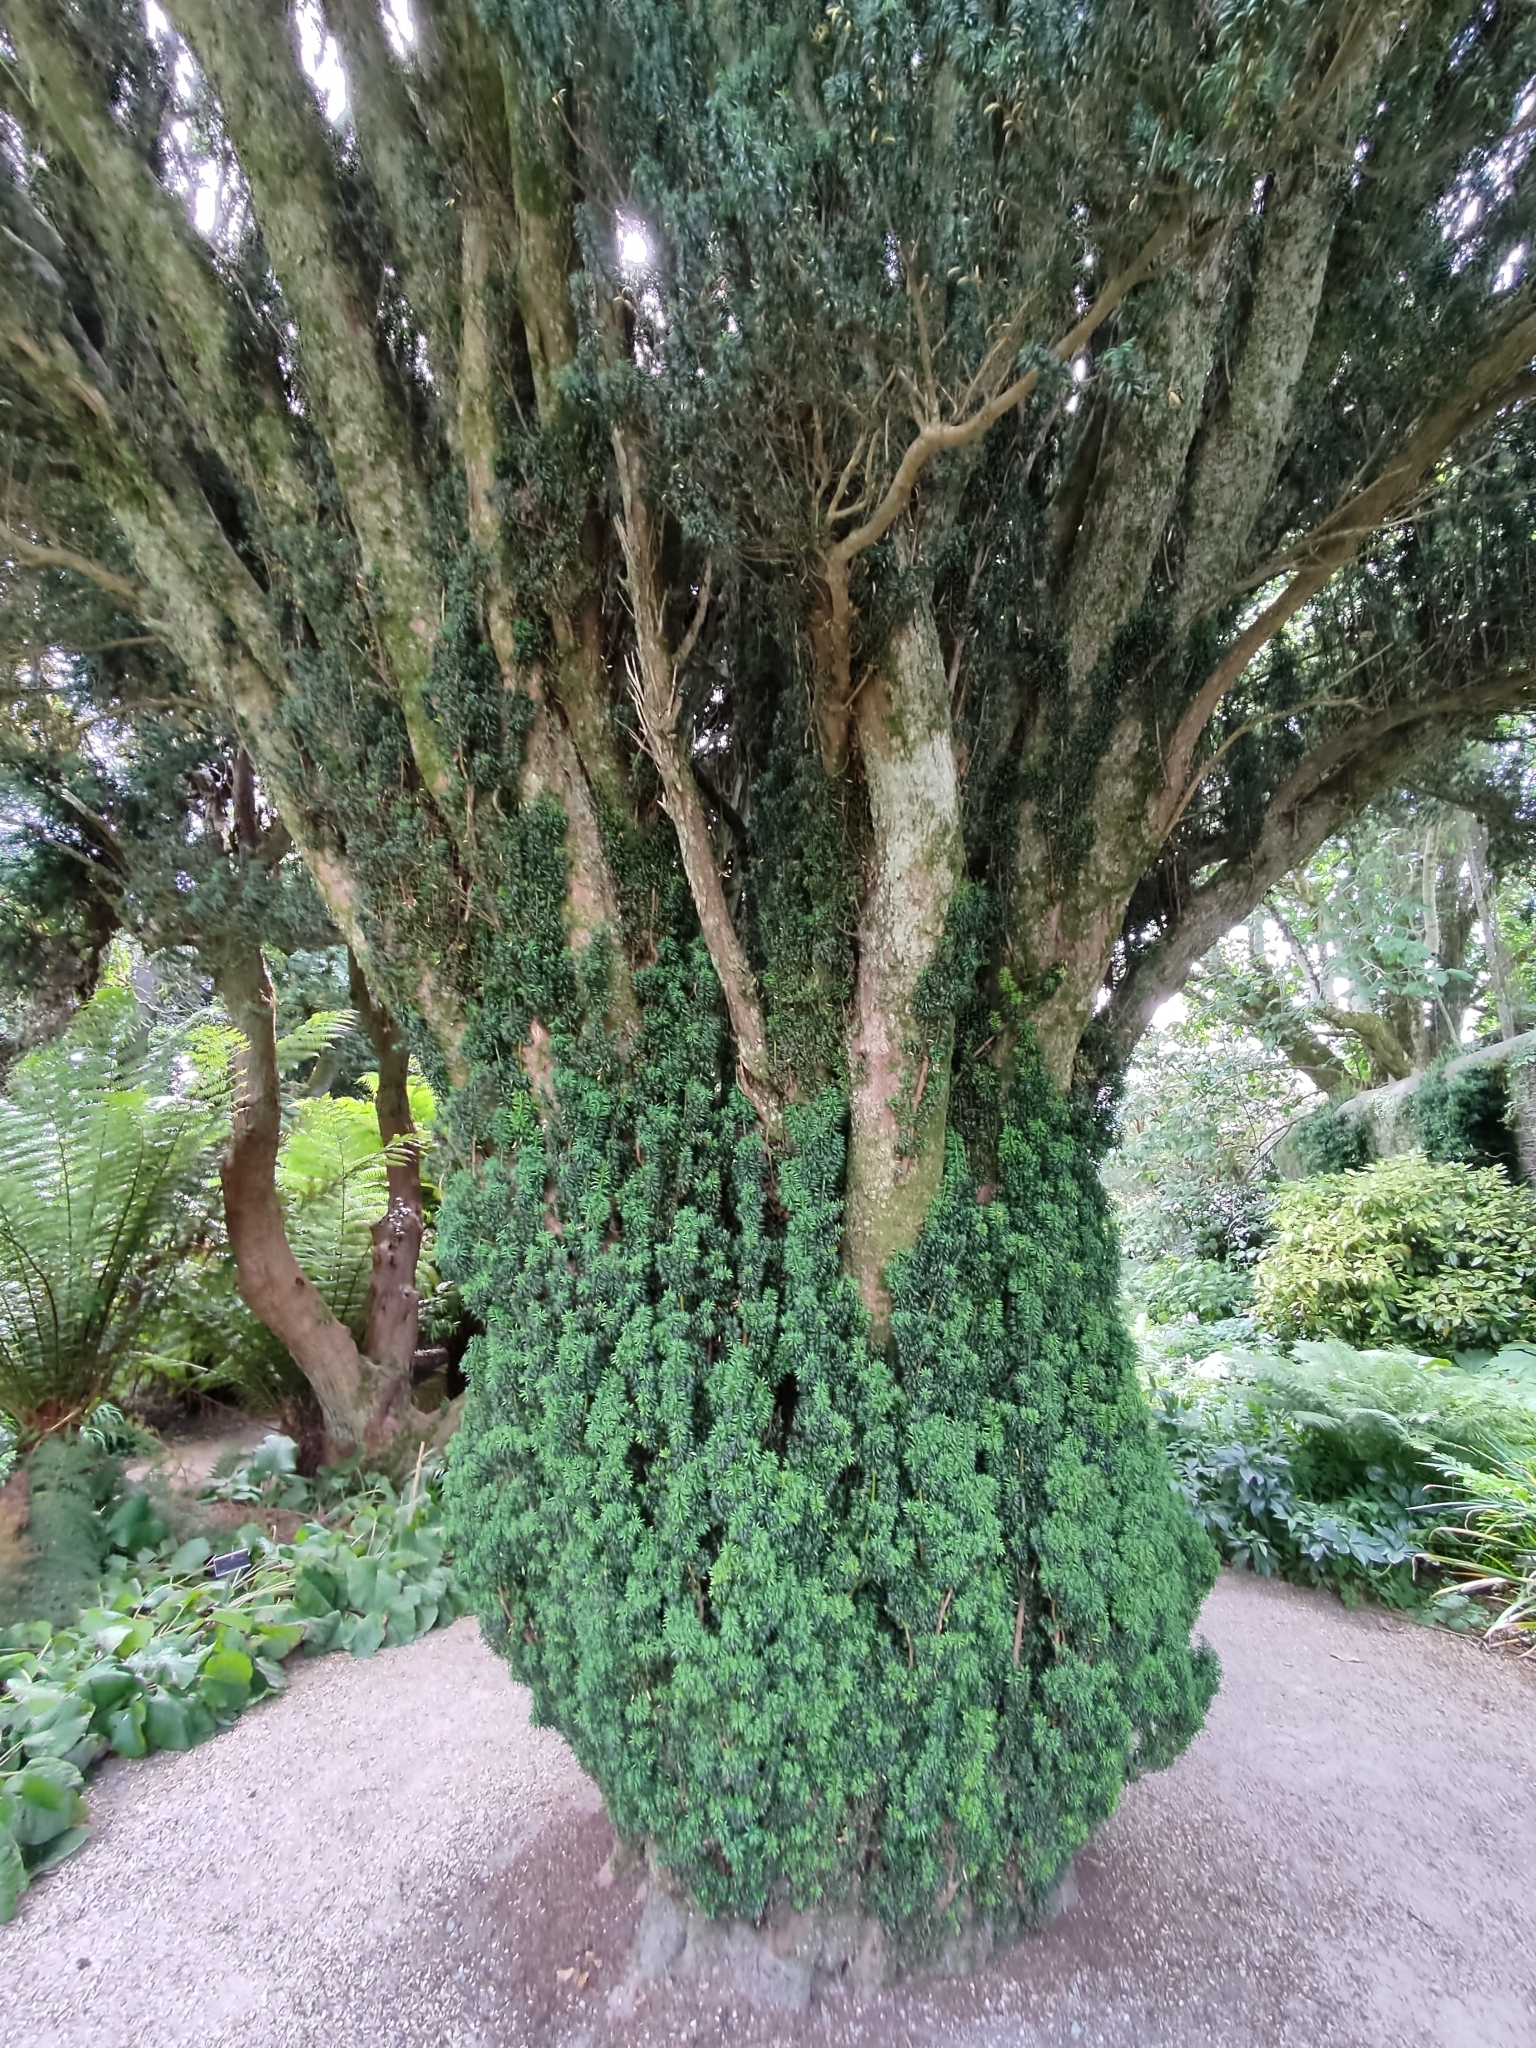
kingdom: Plantae
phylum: Tracheophyta
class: Pinopsida
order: Pinales
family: Taxaceae
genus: Taxus
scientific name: Taxus baccata
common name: Yew
